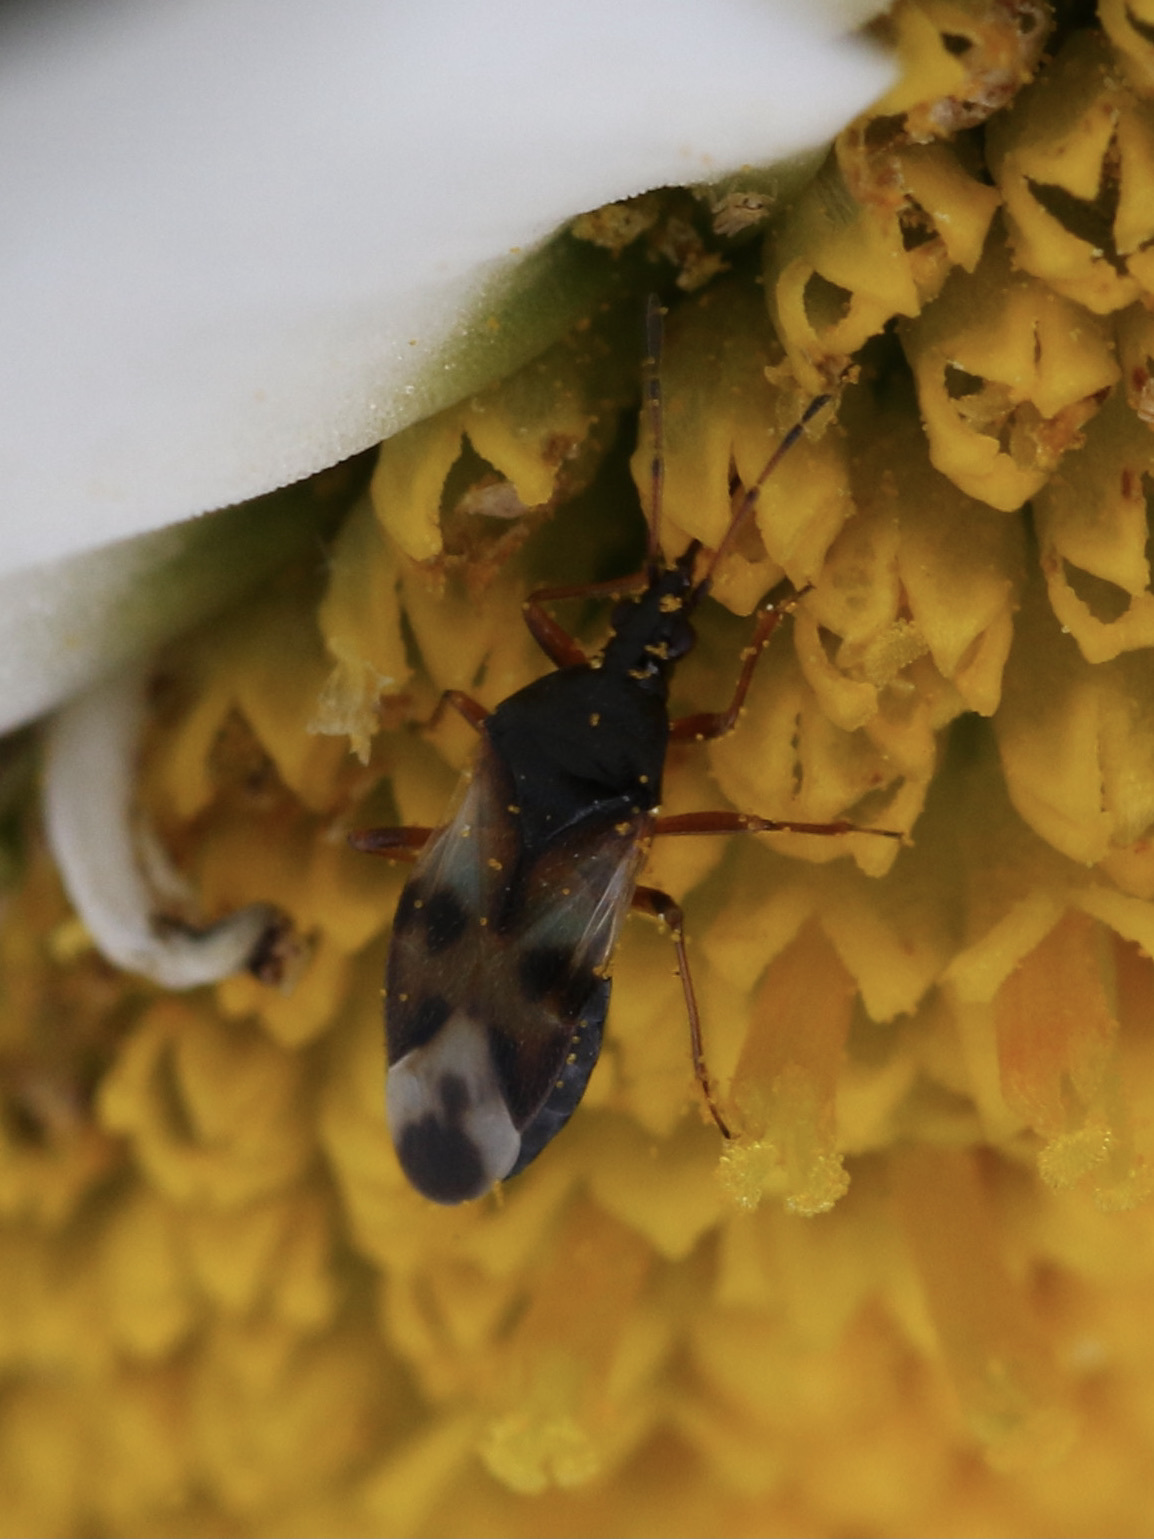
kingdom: Animalia
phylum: Arthropoda
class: Insecta
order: Hemiptera
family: Anthocoridae
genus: Anthocoris
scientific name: Anthocoris nemorum
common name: Minute pirate bug
